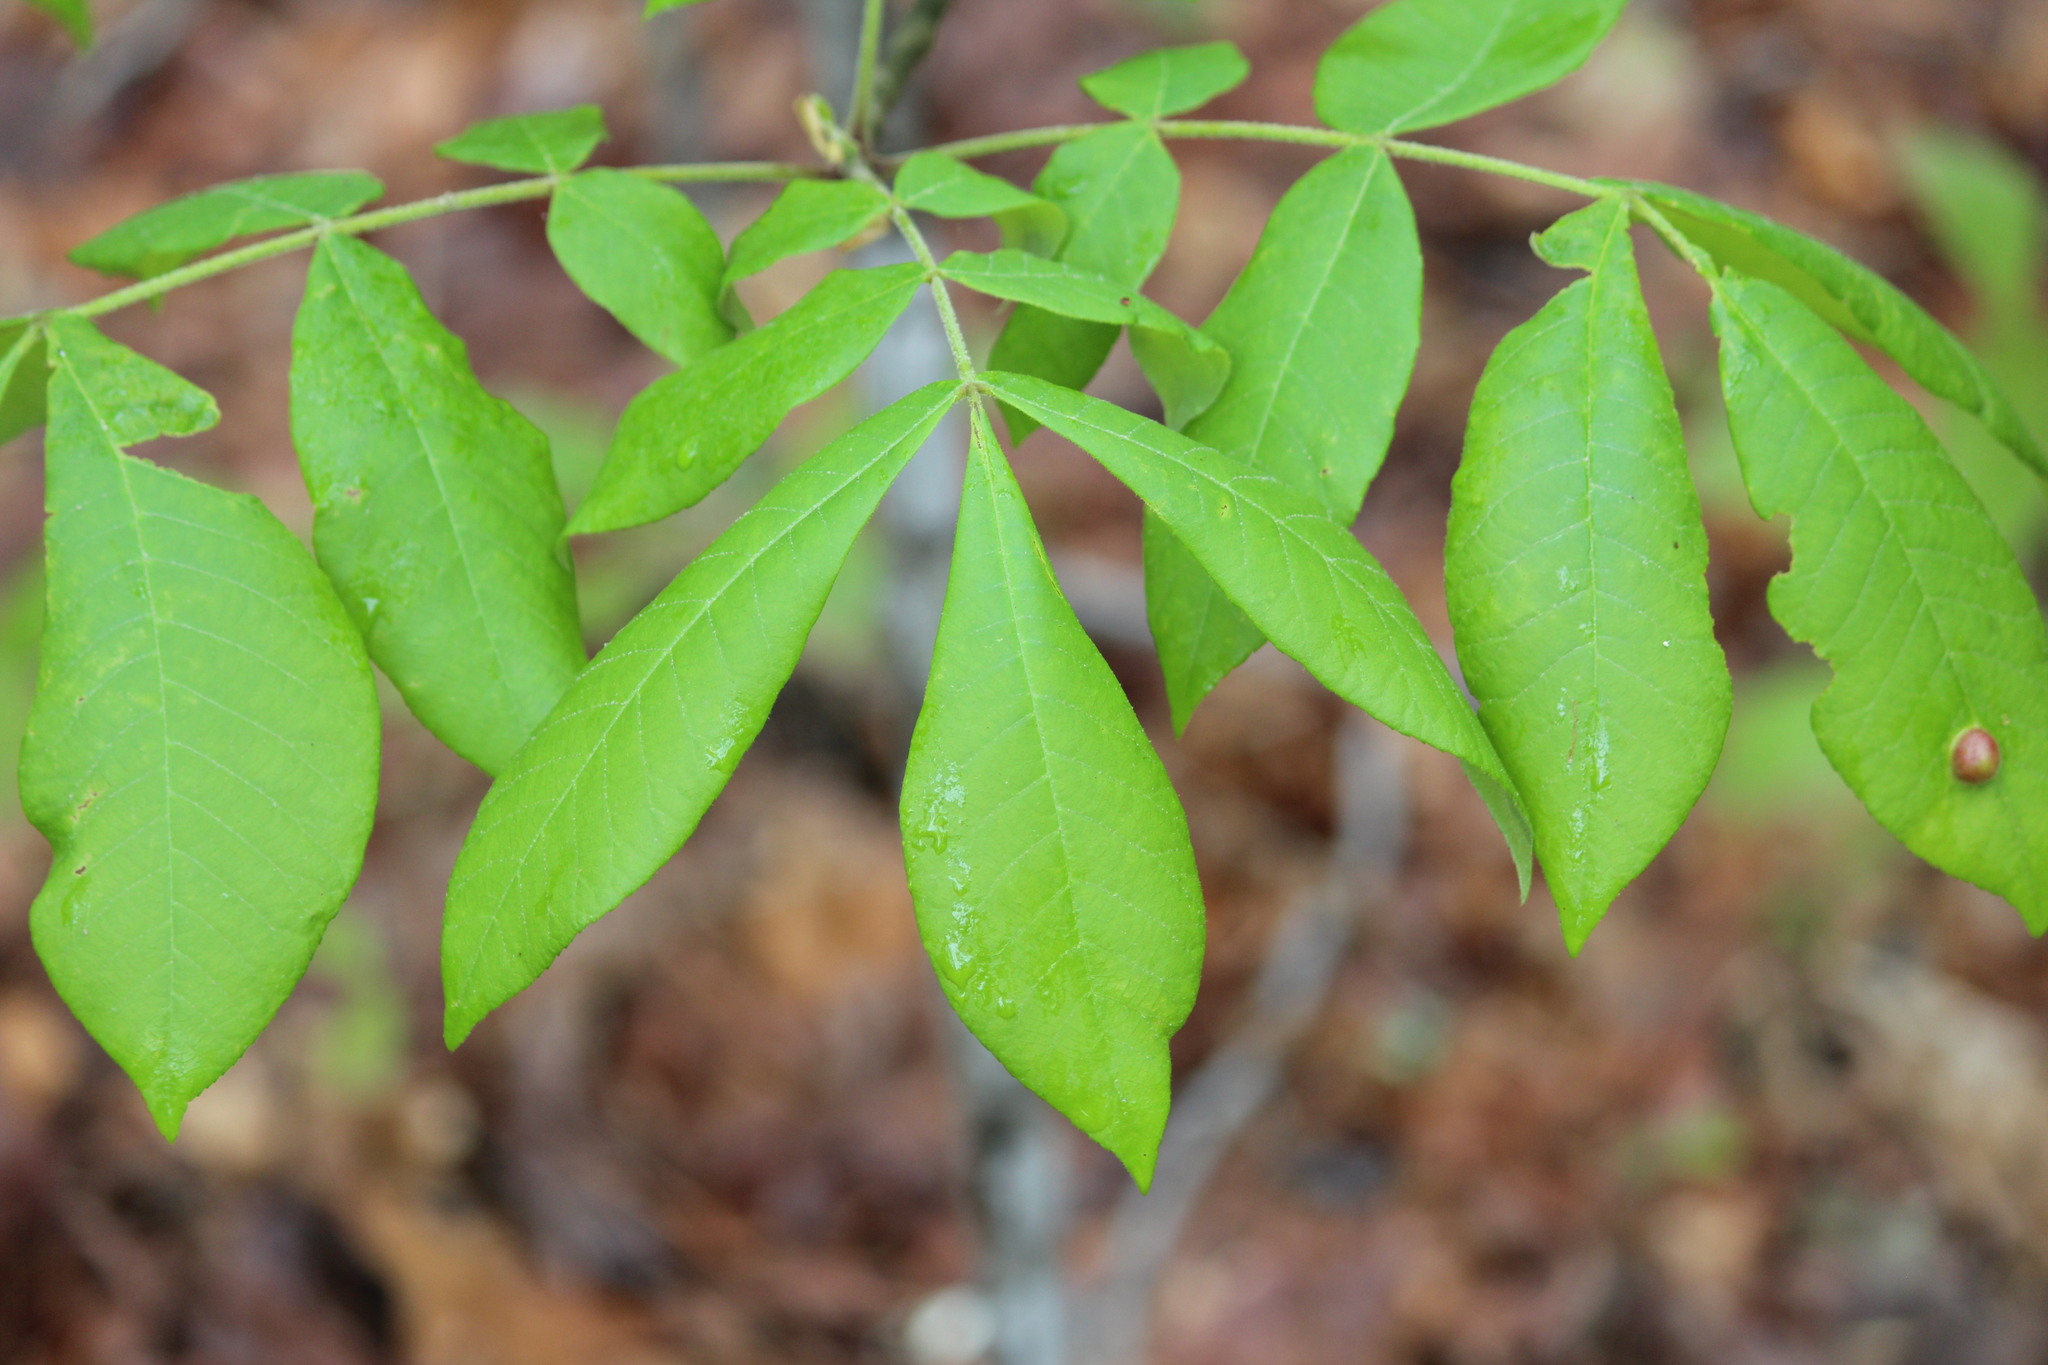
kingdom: Plantae
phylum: Tracheophyta
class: Magnoliopsida
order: Fagales
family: Juglandaceae
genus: Carya
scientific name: Carya alba
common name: Mockernut hickory
